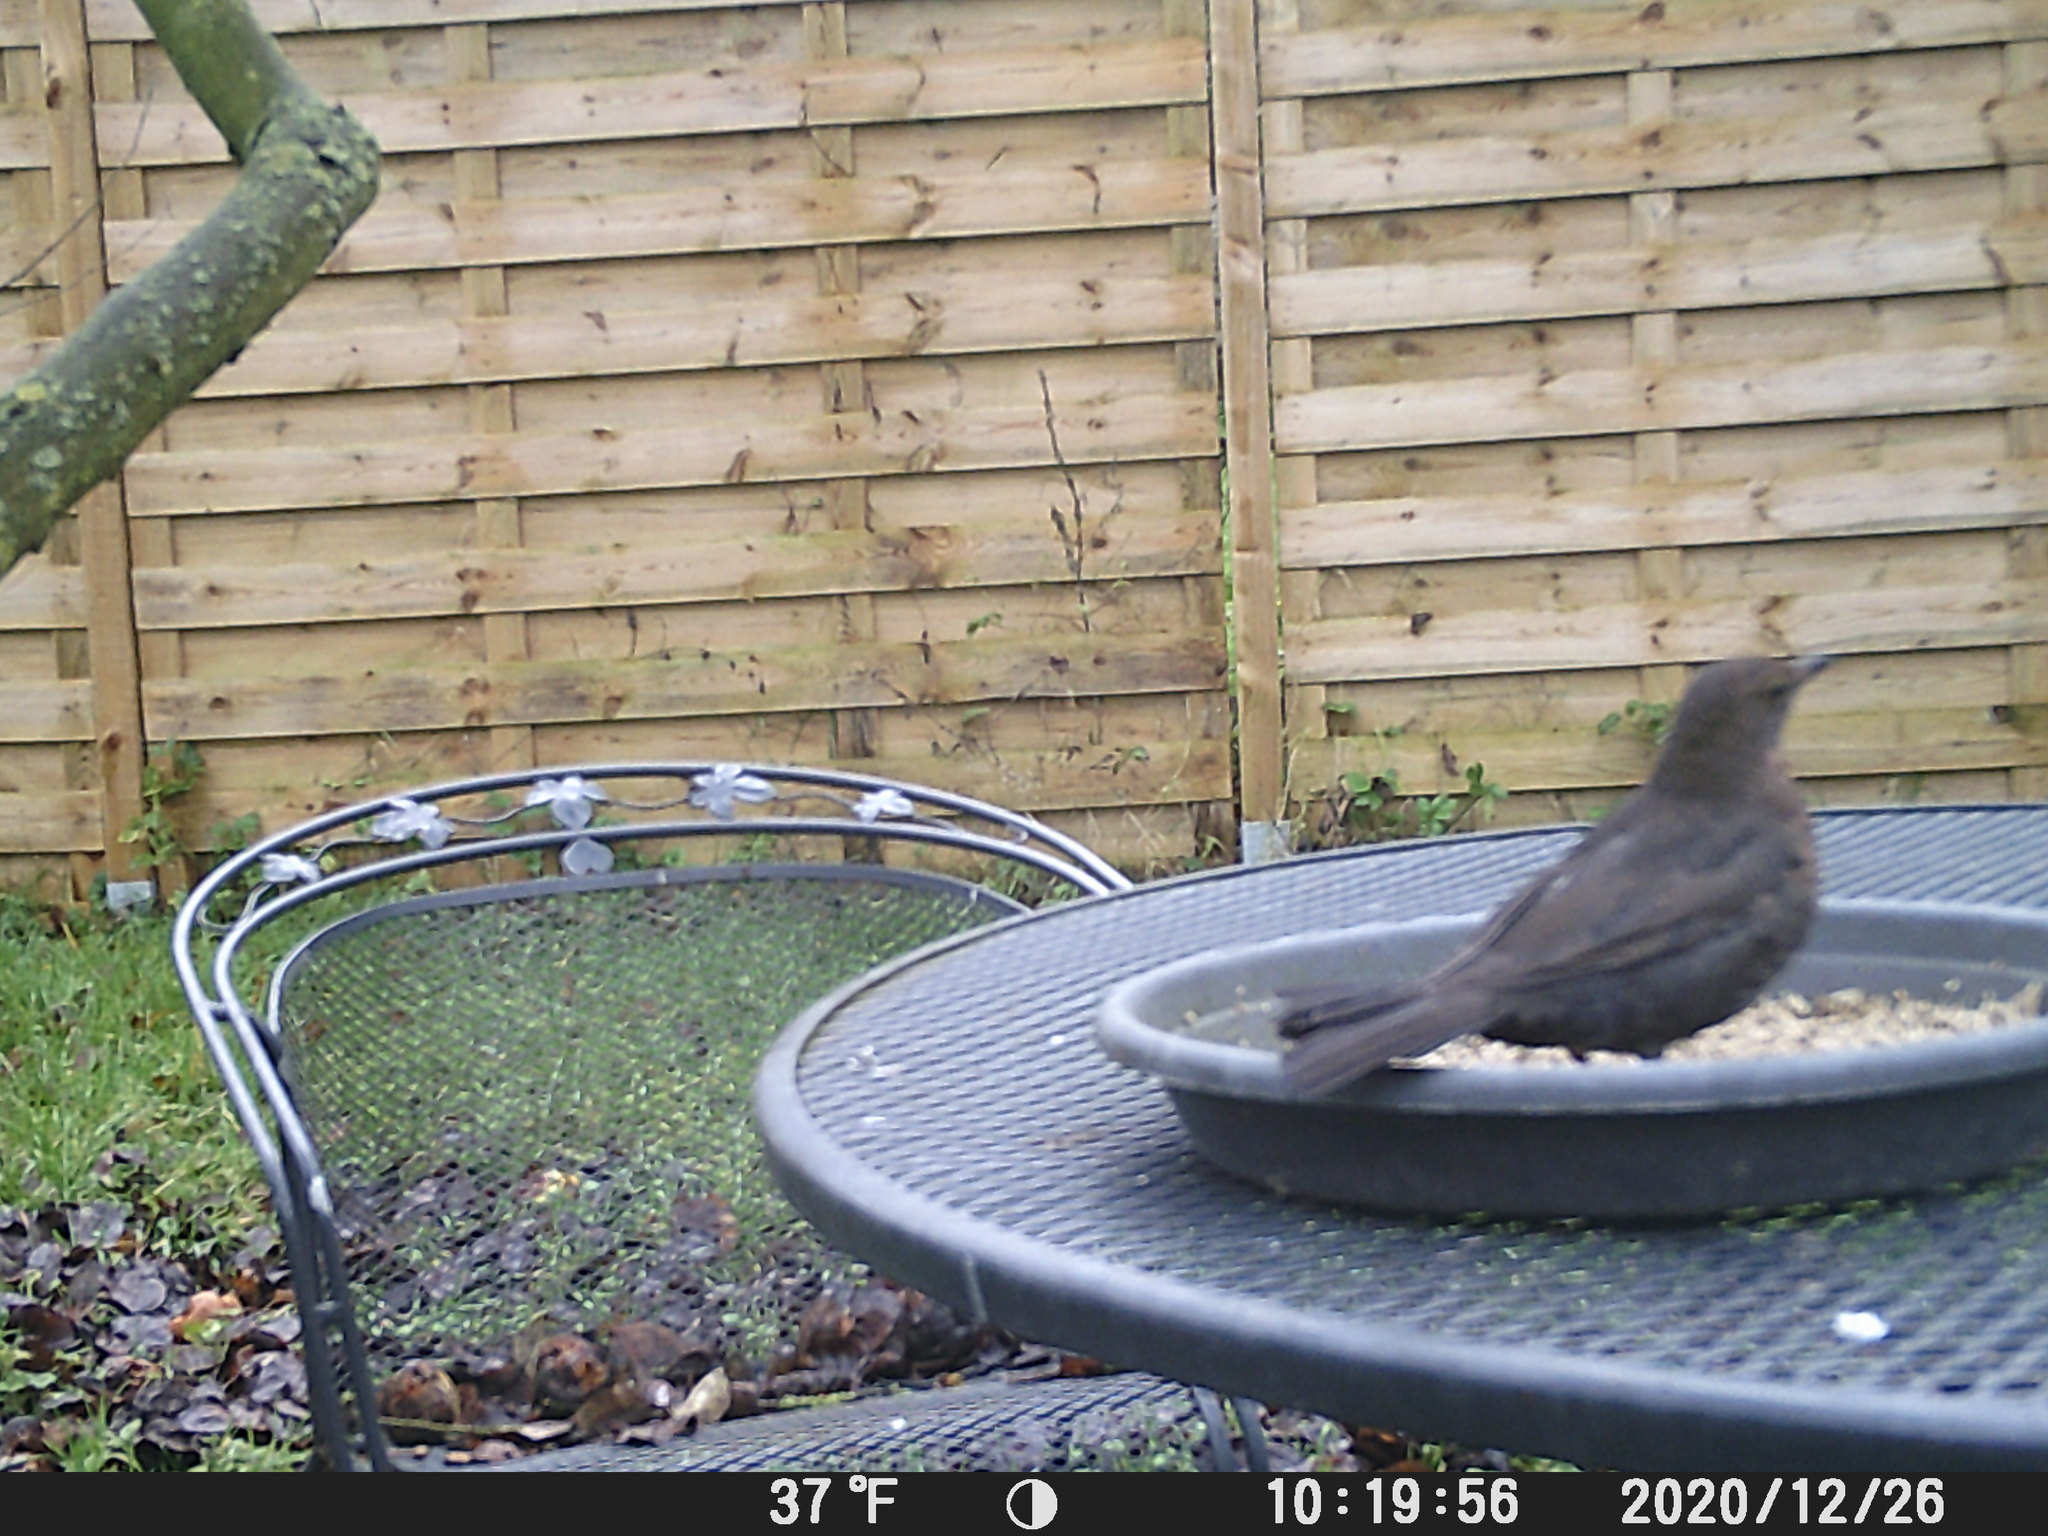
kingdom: Animalia
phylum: Chordata
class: Aves
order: Passeriformes
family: Turdidae
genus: Turdus
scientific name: Turdus merula
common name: Common blackbird
